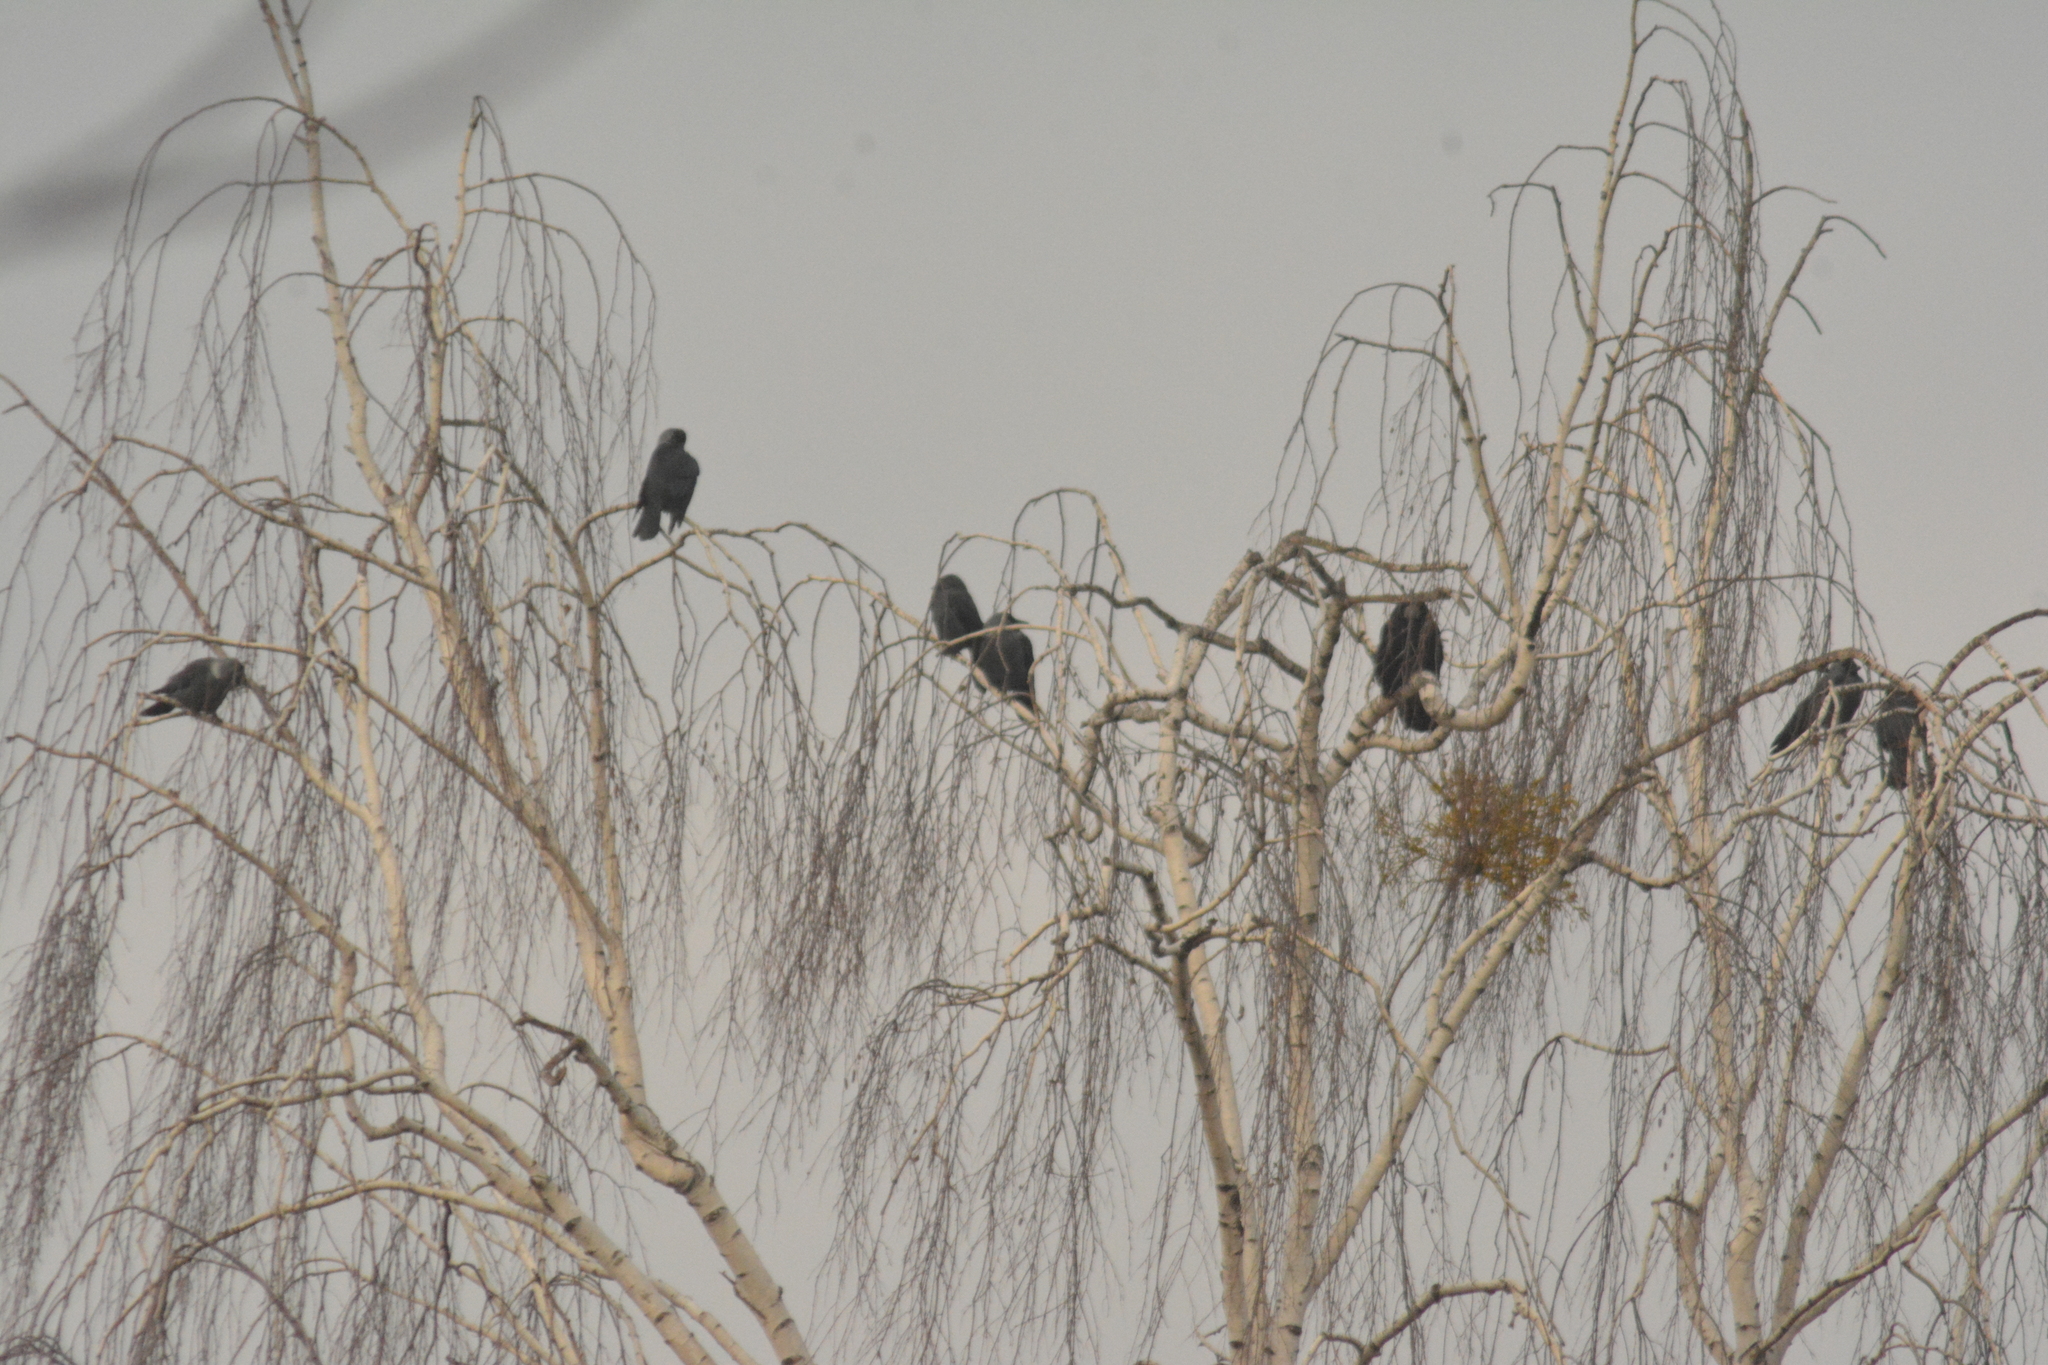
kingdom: Animalia
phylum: Chordata
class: Aves
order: Passeriformes
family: Corvidae
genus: Coloeus
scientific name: Coloeus monedula
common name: Western jackdaw
